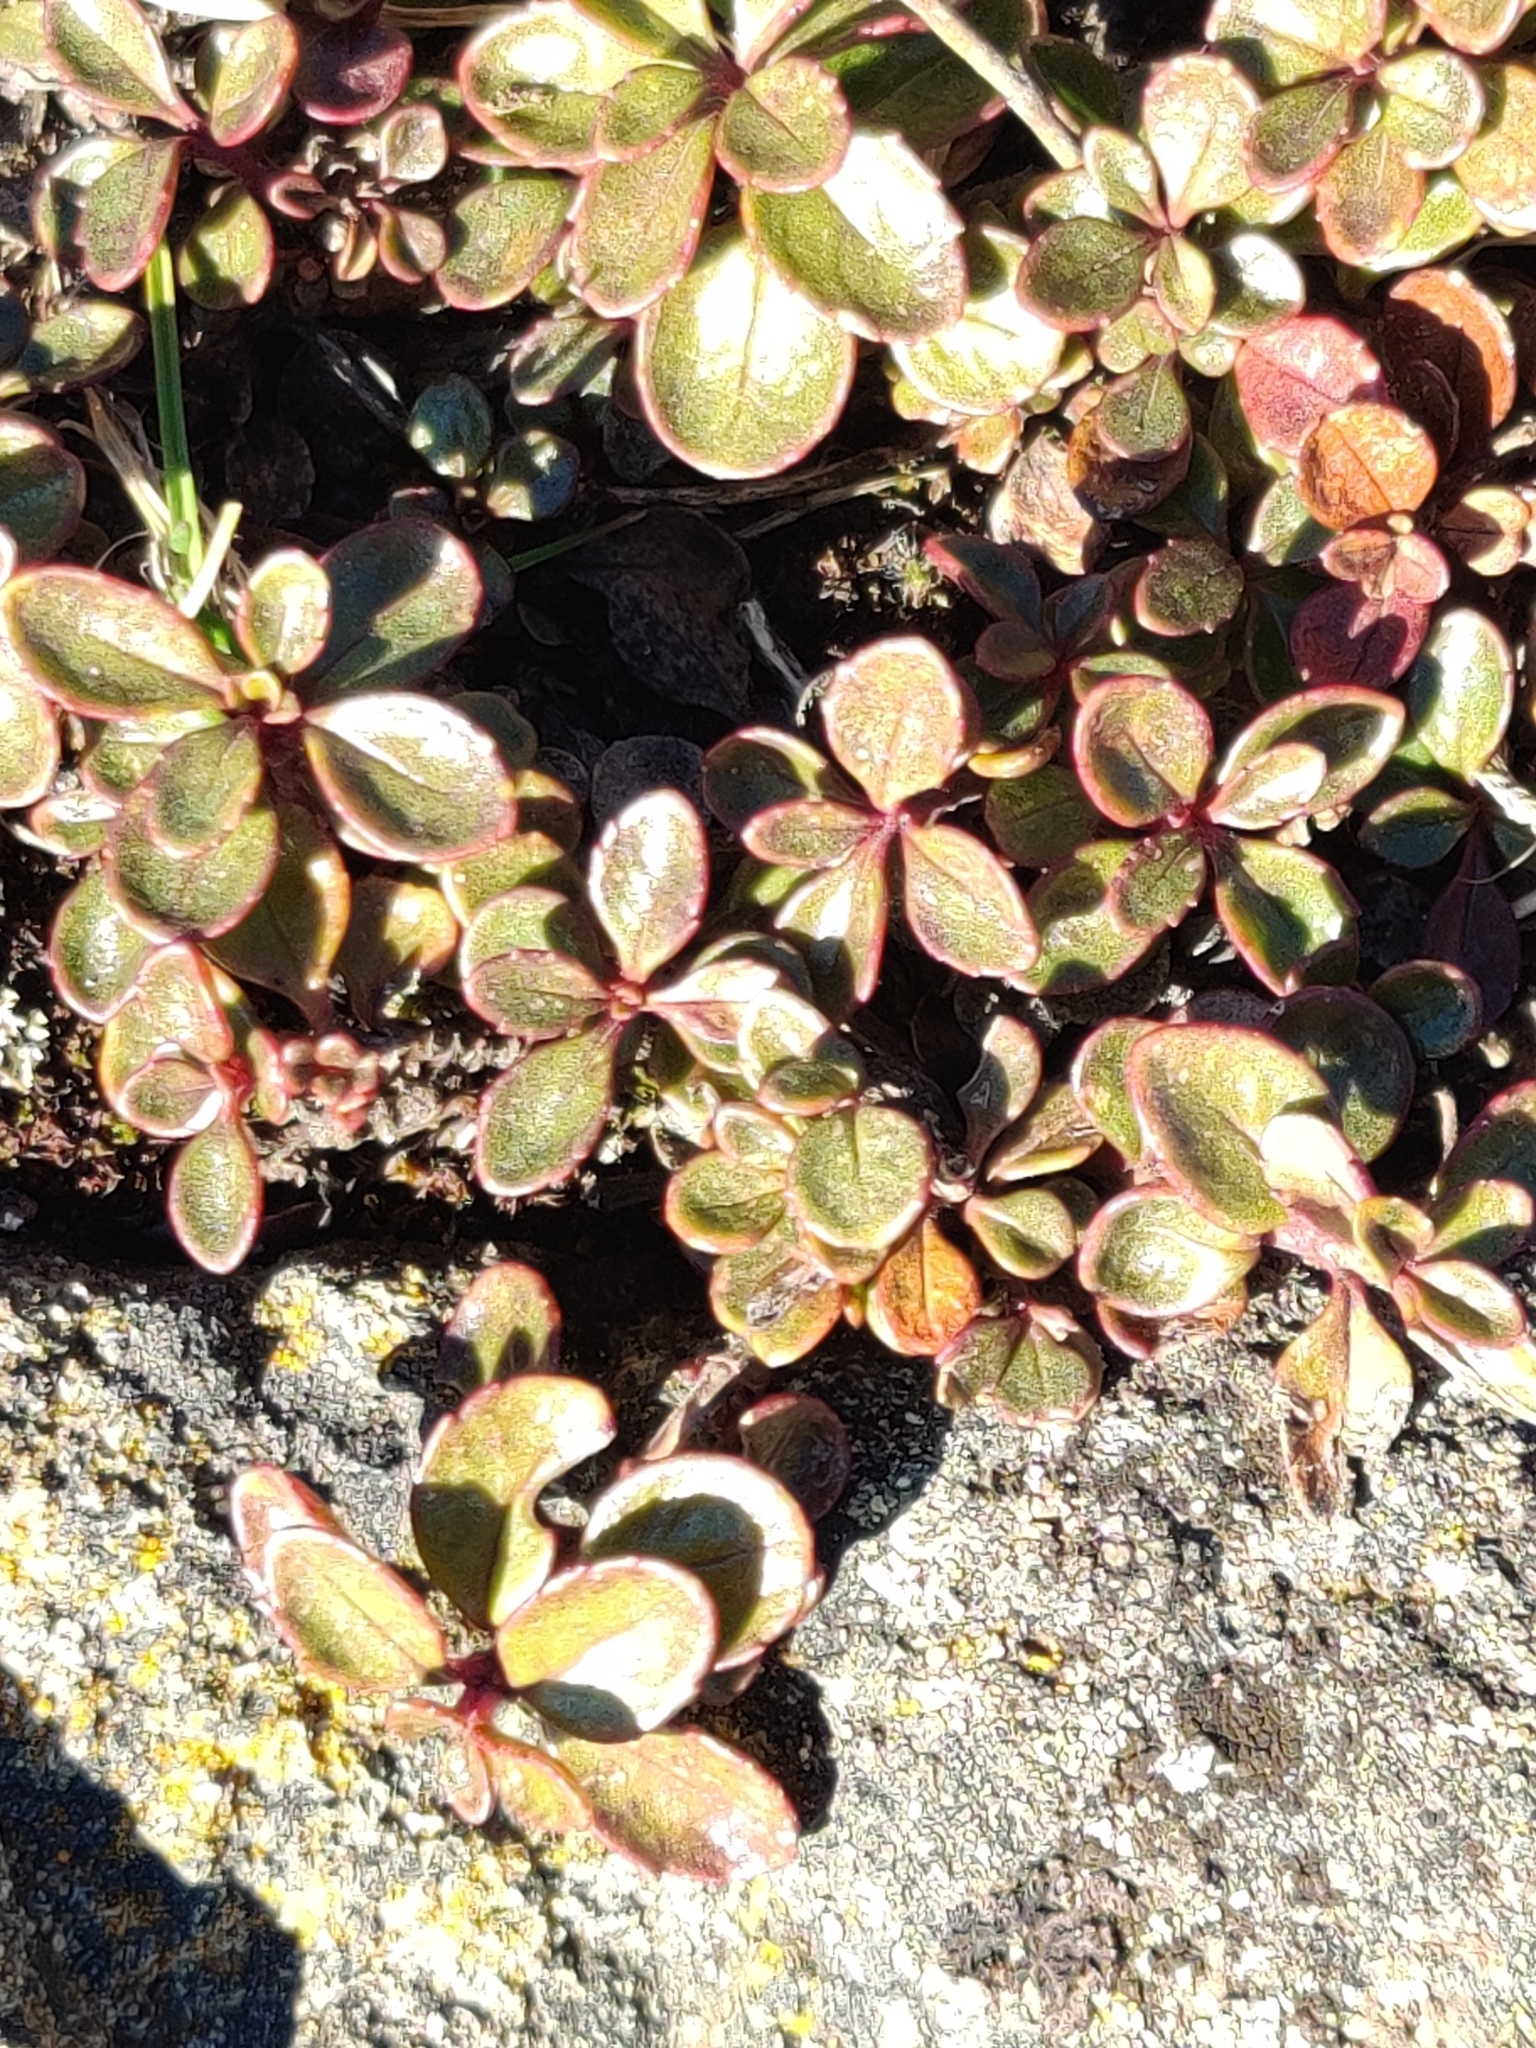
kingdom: Plantae
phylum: Tracheophyta
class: Magnoliopsida
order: Lamiales
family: Plantaginaceae
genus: Penstemon
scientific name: Penstemon davidsonii
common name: Davidson's penstemon
